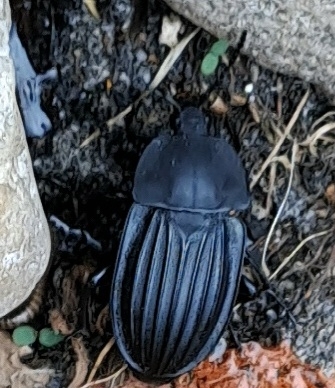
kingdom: Animalia
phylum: Arthropoda
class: Insecta
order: Coleoptera
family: Staphylinidae
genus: Silpha
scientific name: Silpha capicola
